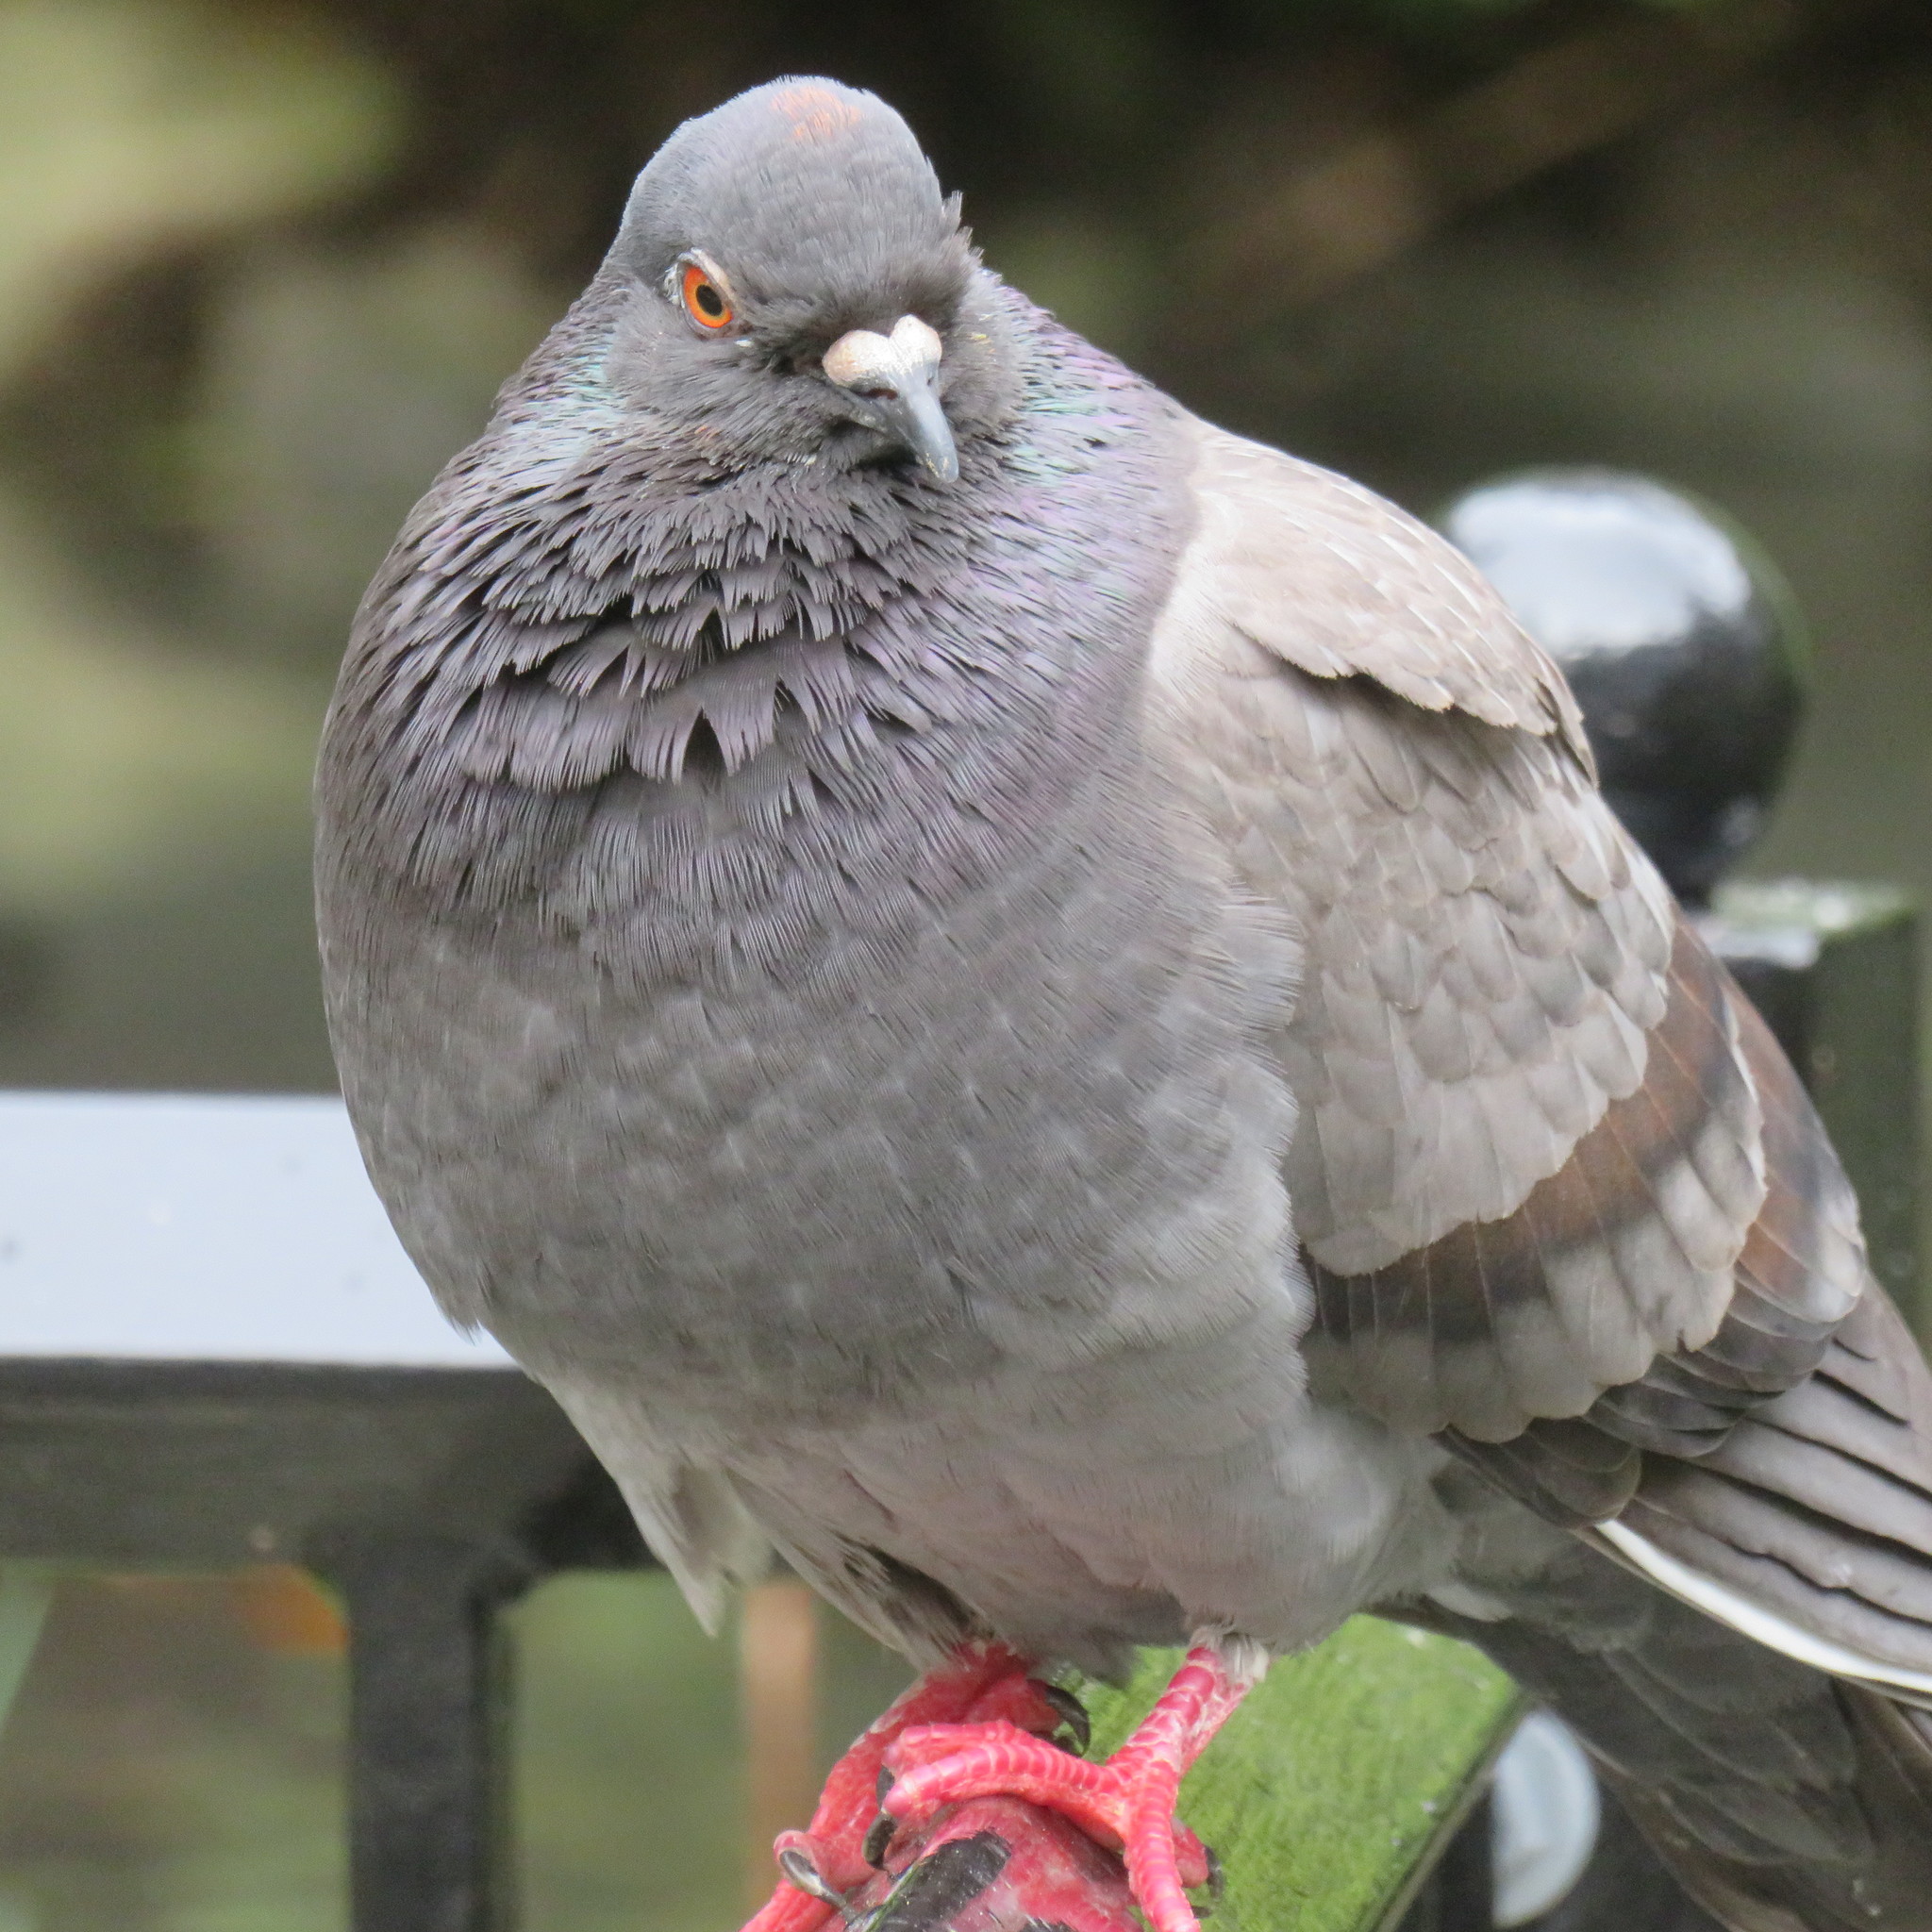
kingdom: Animalia
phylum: Chordata
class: Aves
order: Columbiformes
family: Columbidae
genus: Columba
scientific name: Columba livia
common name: Rock pigeon
